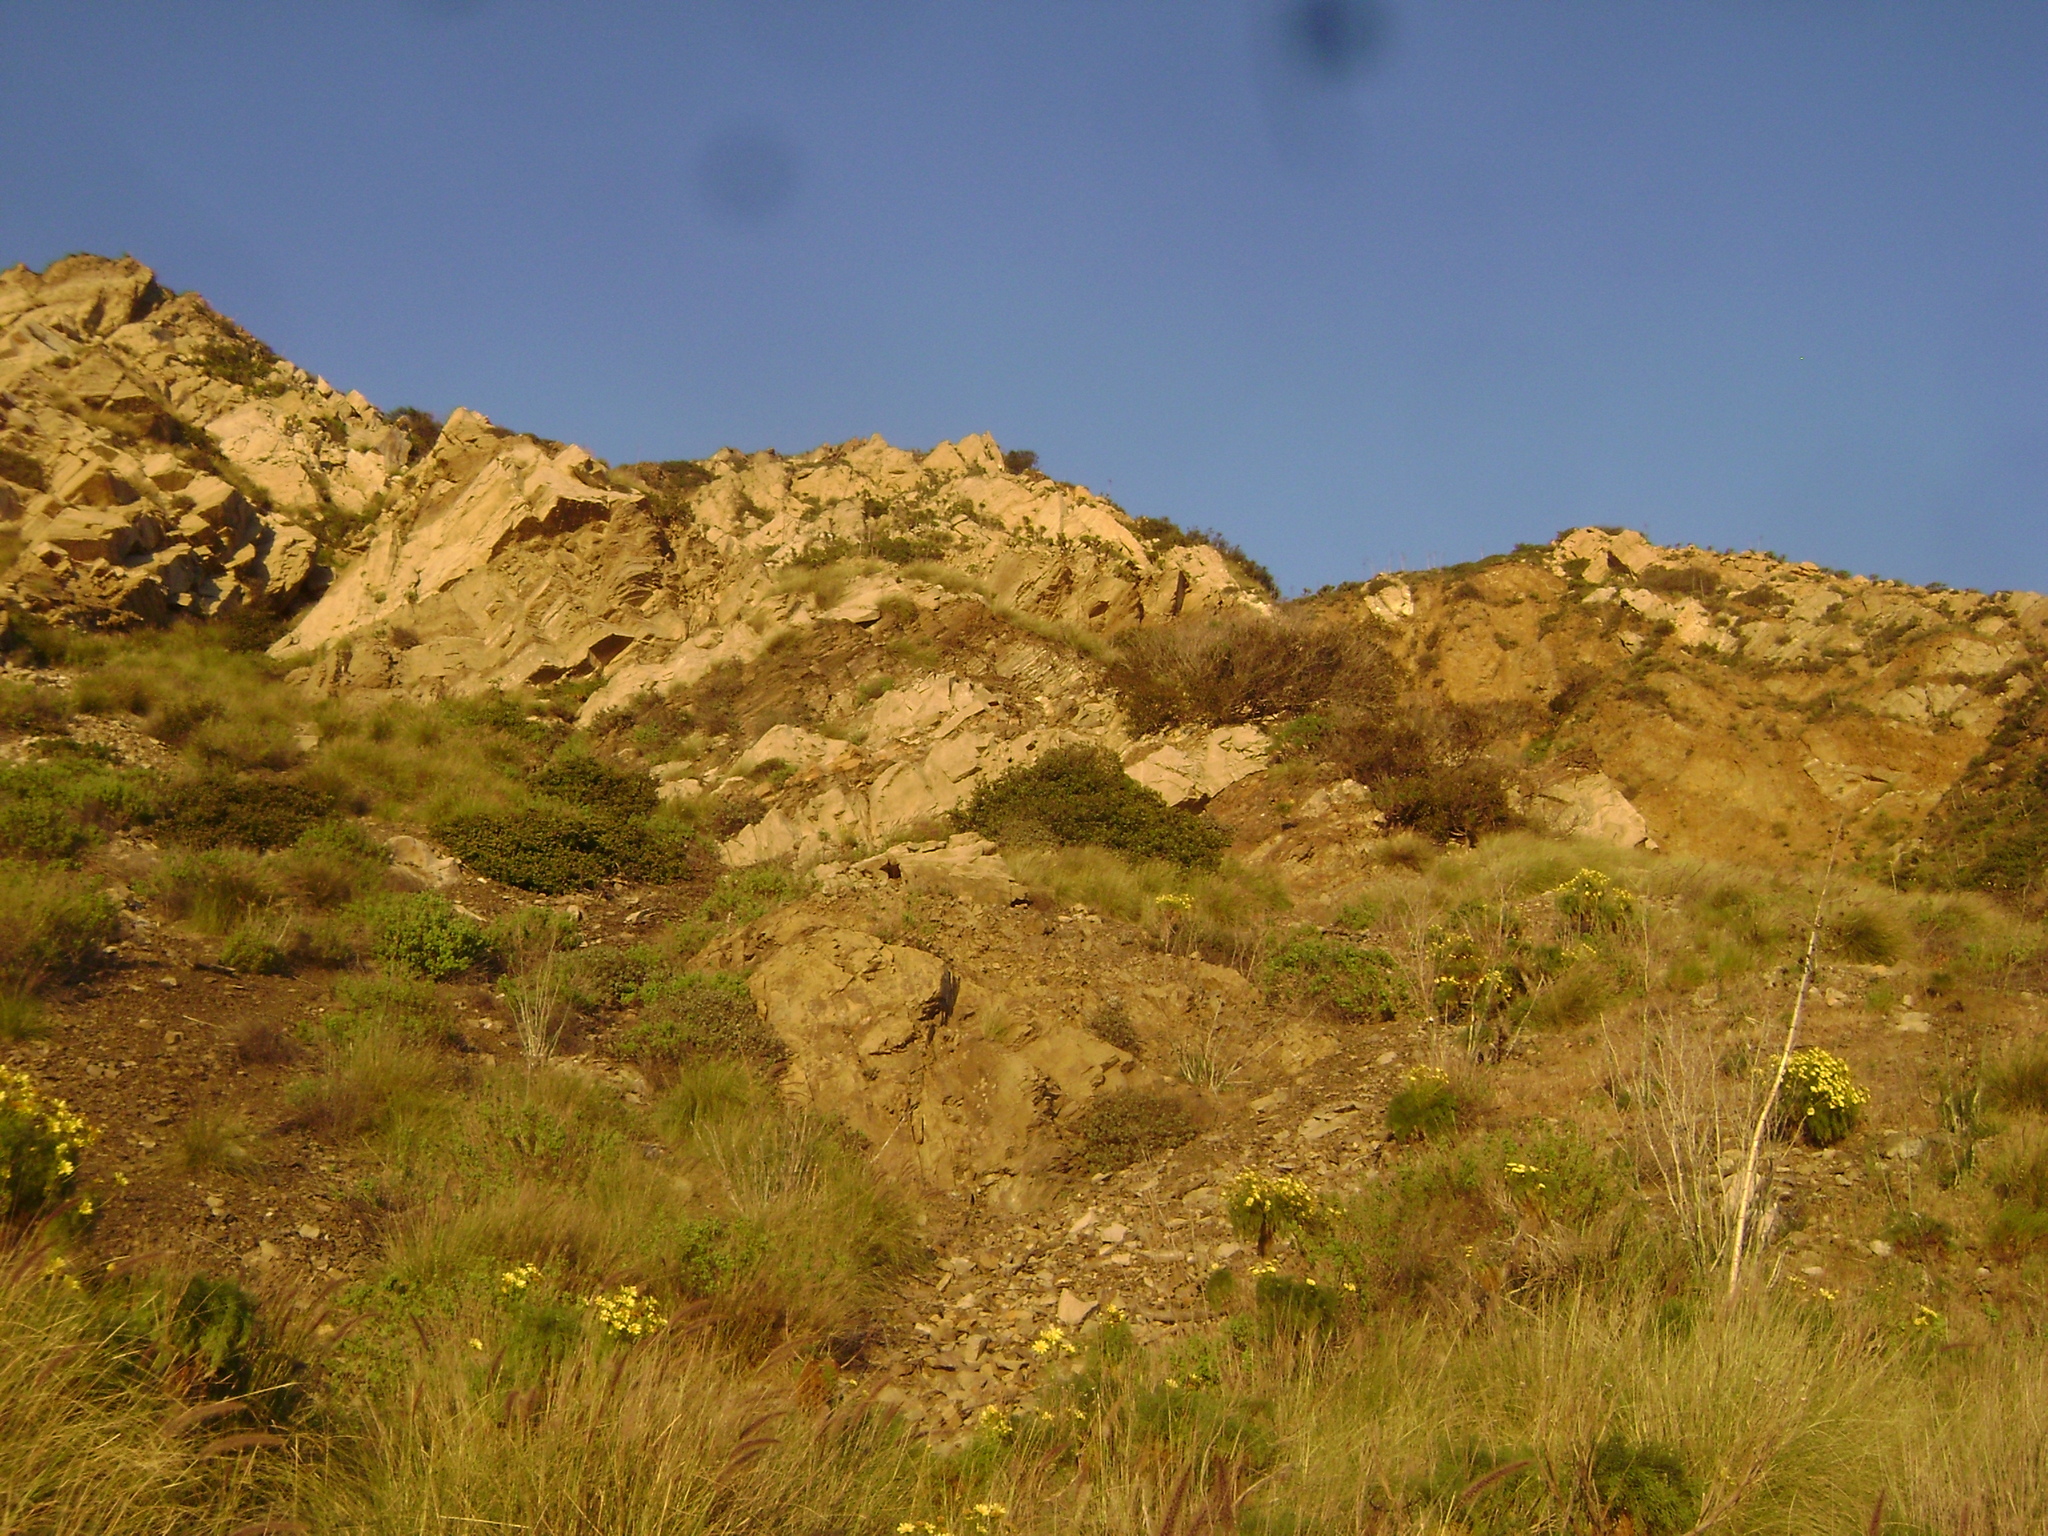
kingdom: Plantae
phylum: Tracheophyta
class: Magnoliopsida
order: Asterales
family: Asteraceae
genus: Coreopsis
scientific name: Coreopsis gigantea
